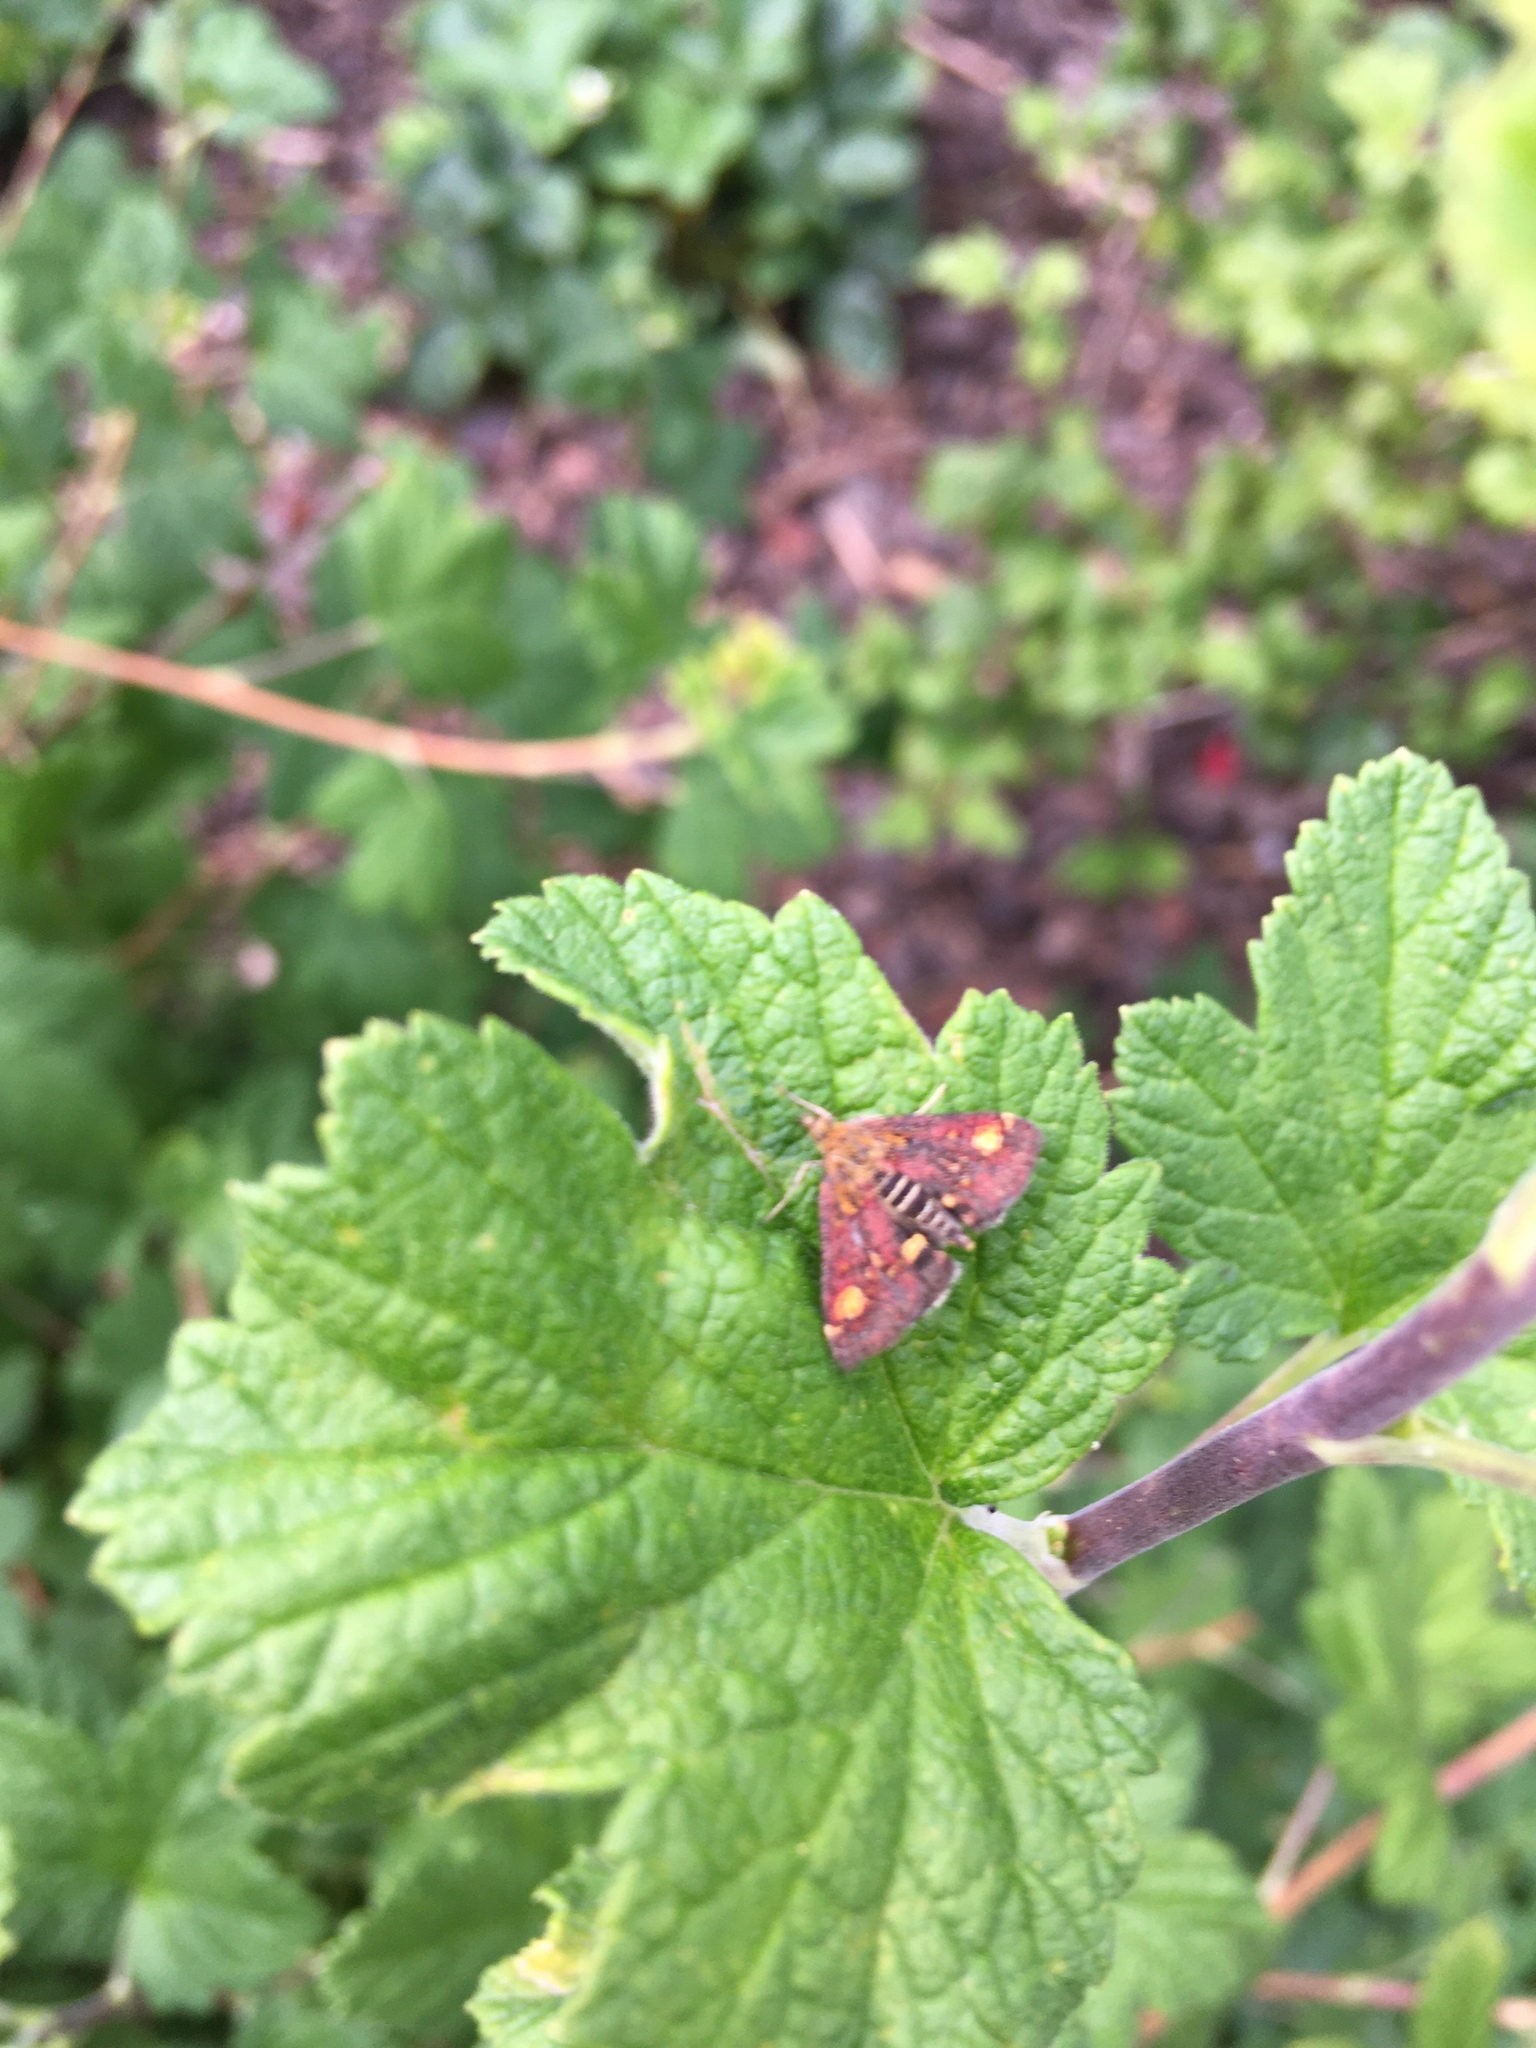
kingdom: Animalia
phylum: Arthropoda
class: Insecta
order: Lepidoptera
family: Crambidae
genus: Pyrausta
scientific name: Pyrausta aurata
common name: Small purple & gold
